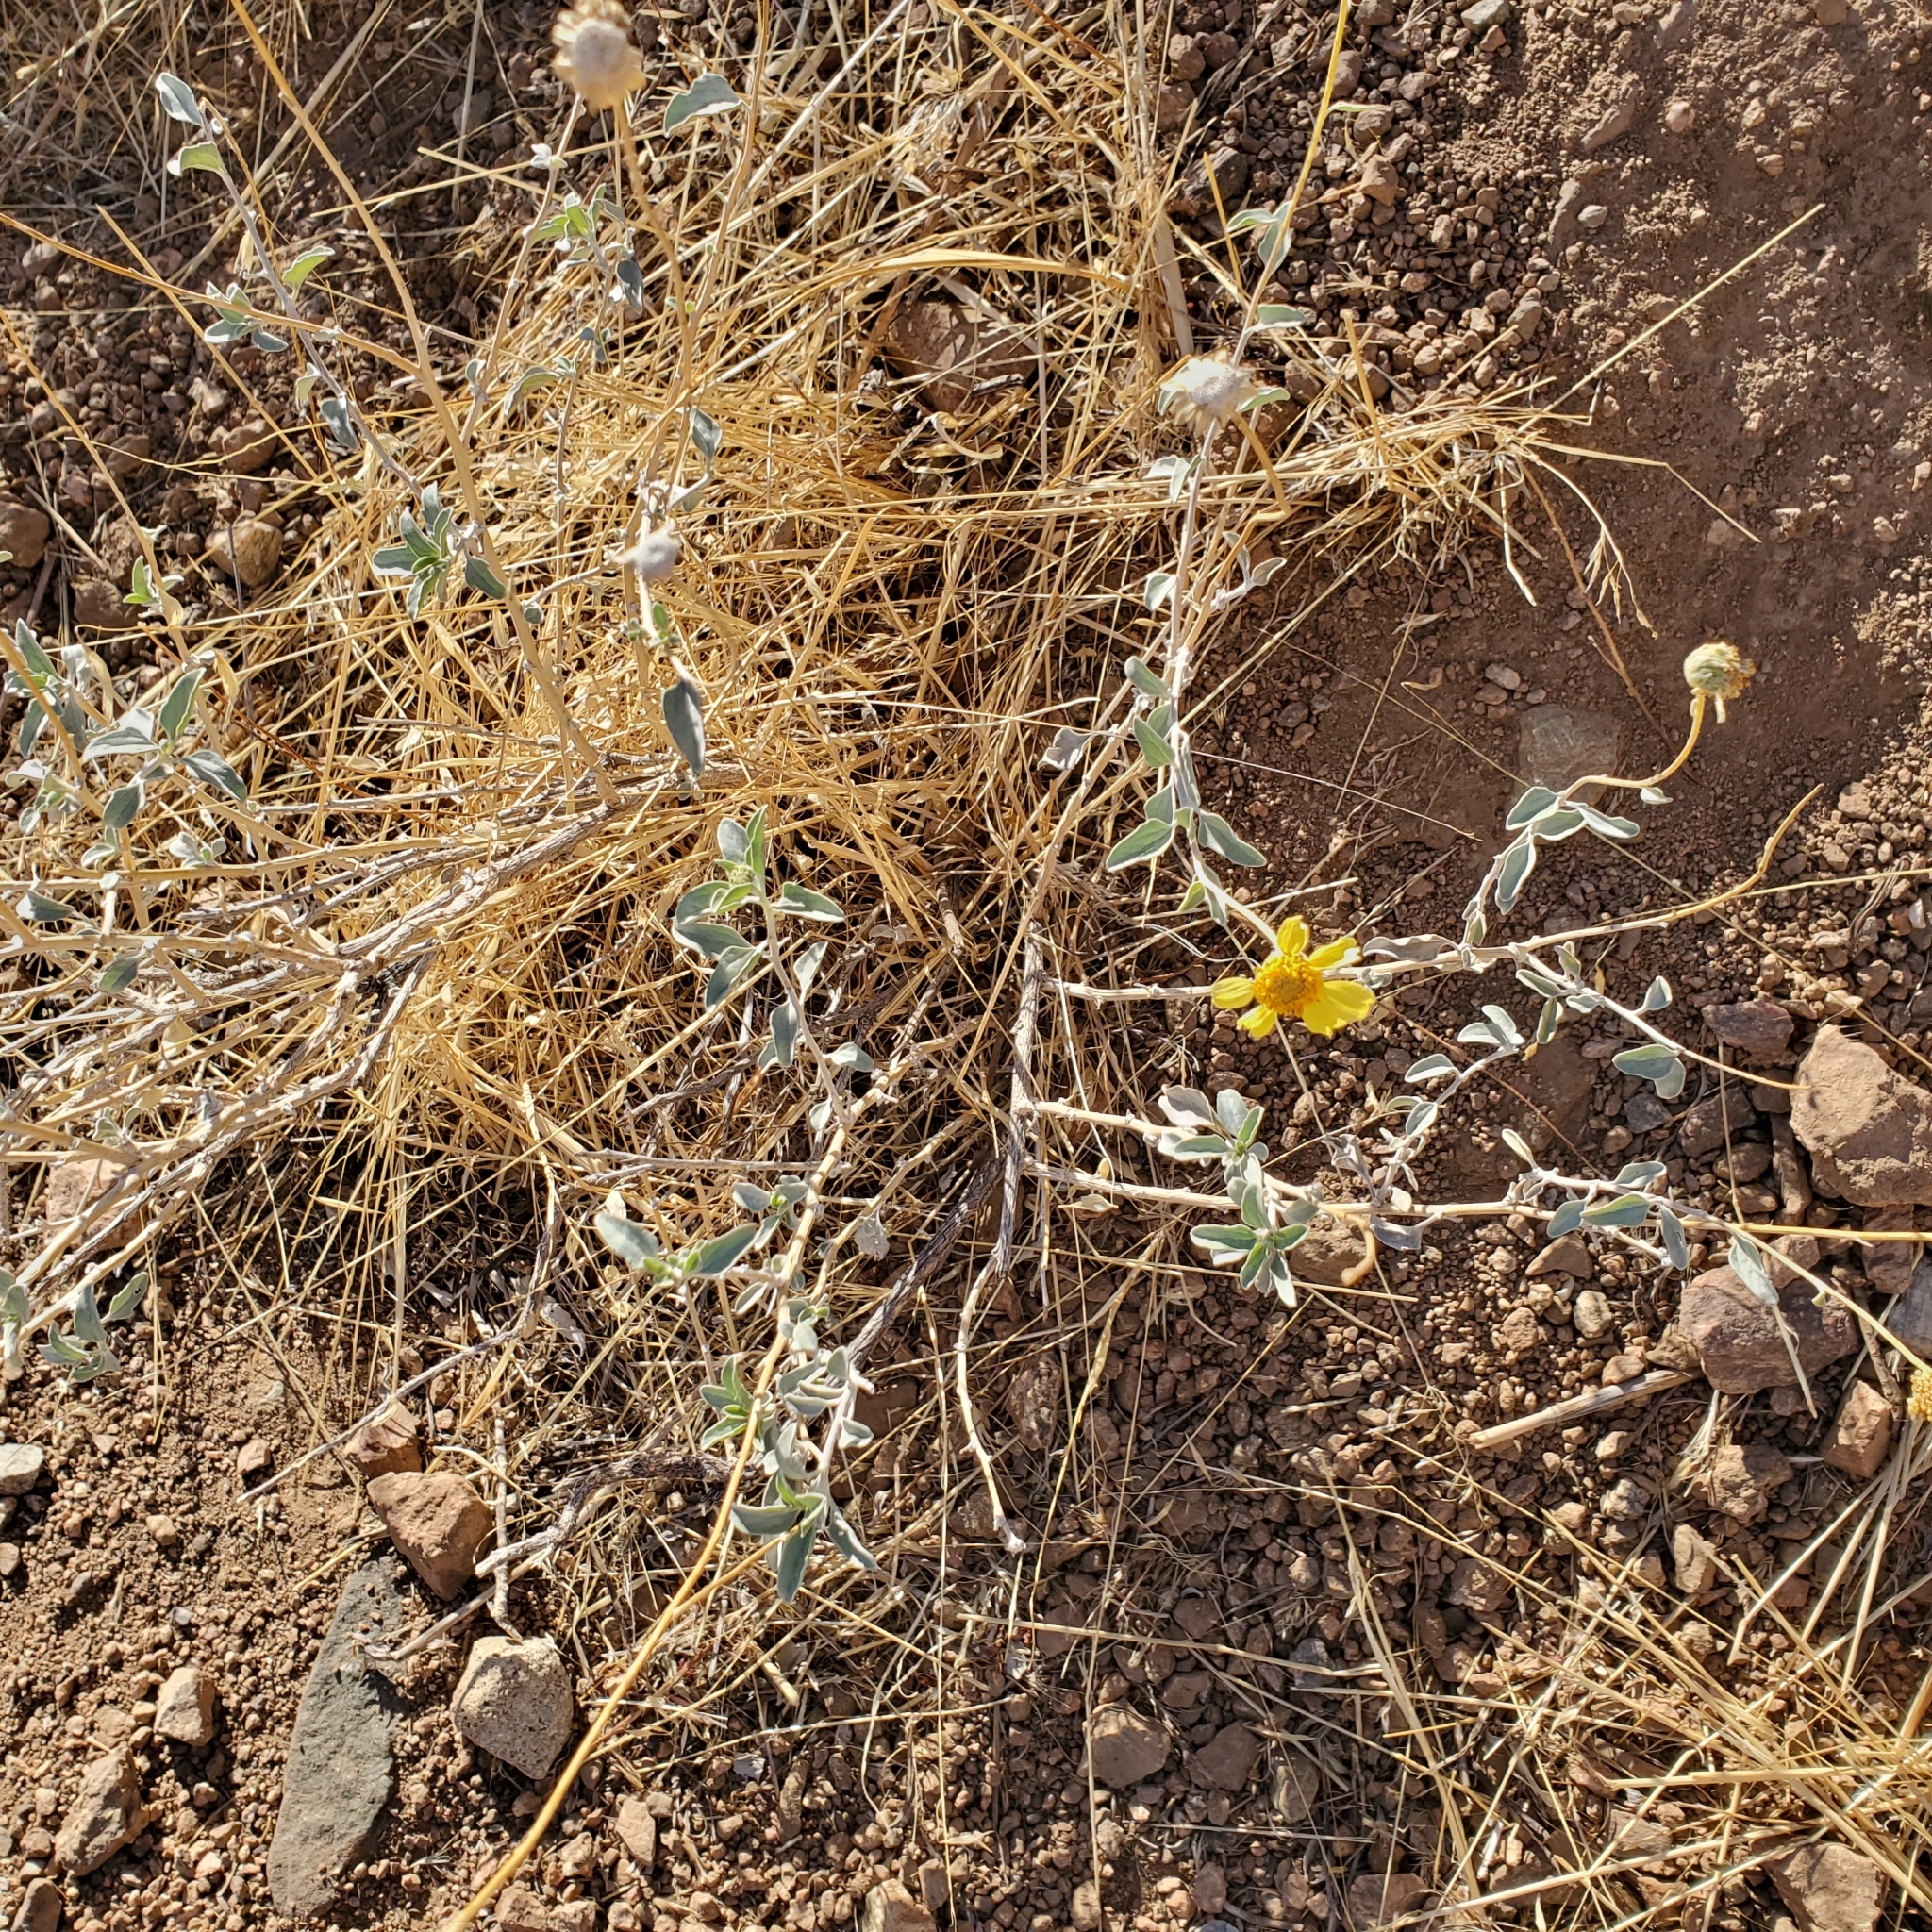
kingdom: Plantae
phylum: Tracheophyta
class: Magnoliopsida
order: Asterales
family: Asteraceae
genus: Encelia
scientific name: Encelia actoni
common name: Acton encelia
